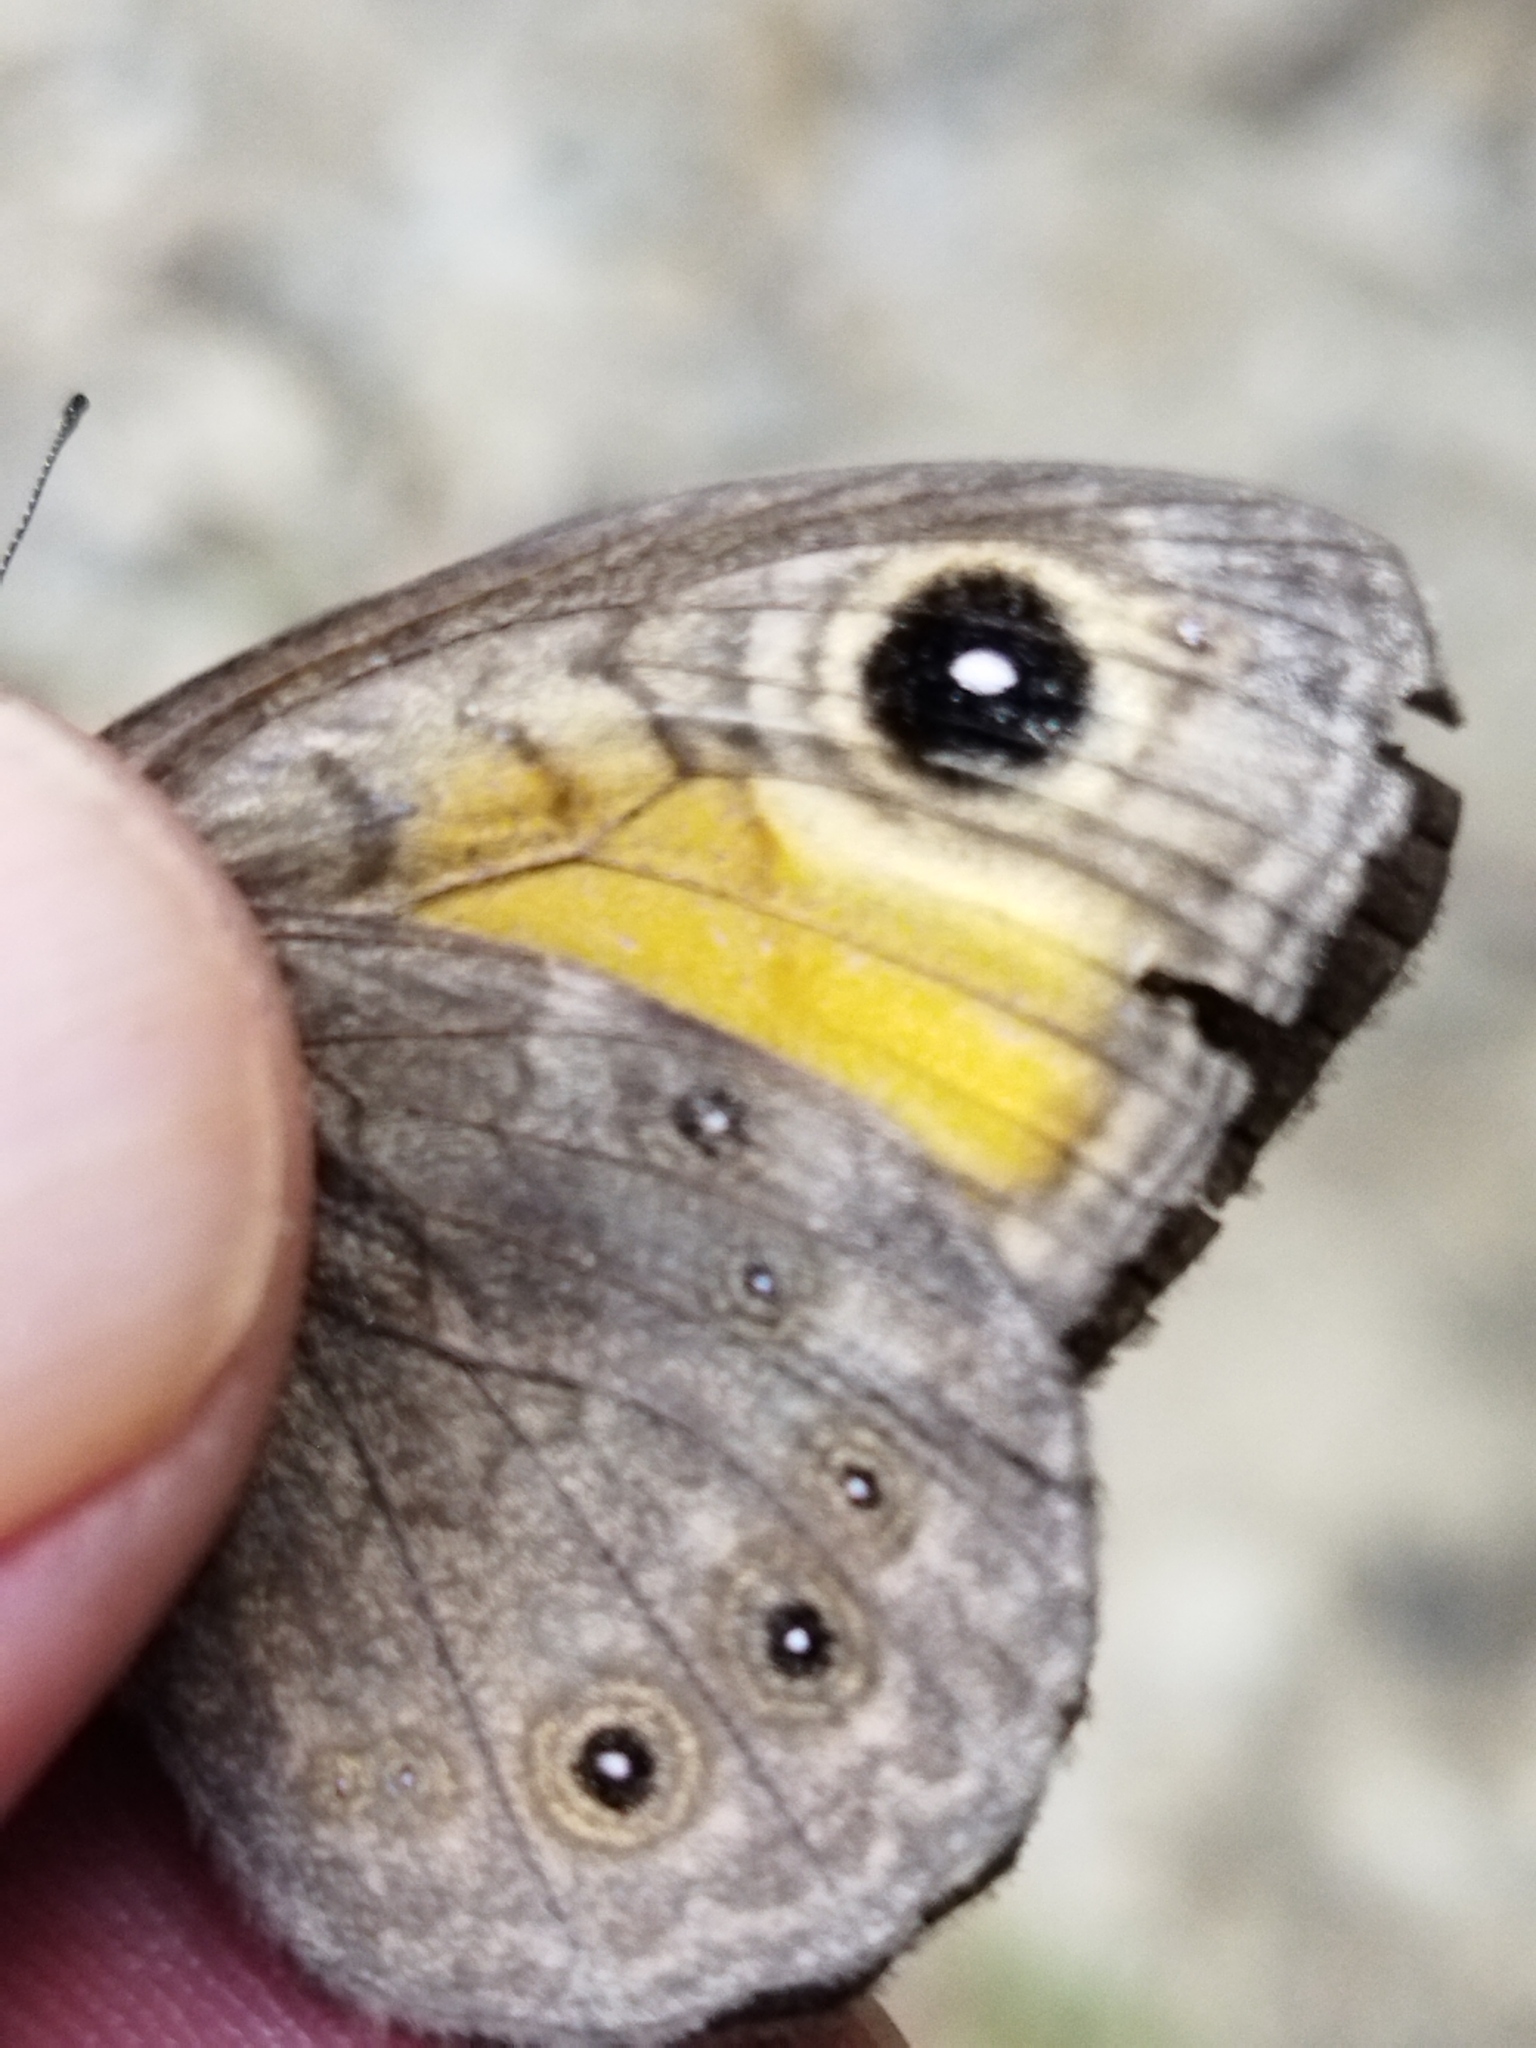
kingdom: Animalia
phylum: Arthropoda
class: Insecta
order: Lepidoptera
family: Nymphalidae
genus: Pararge
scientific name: Pararge petropolitana
